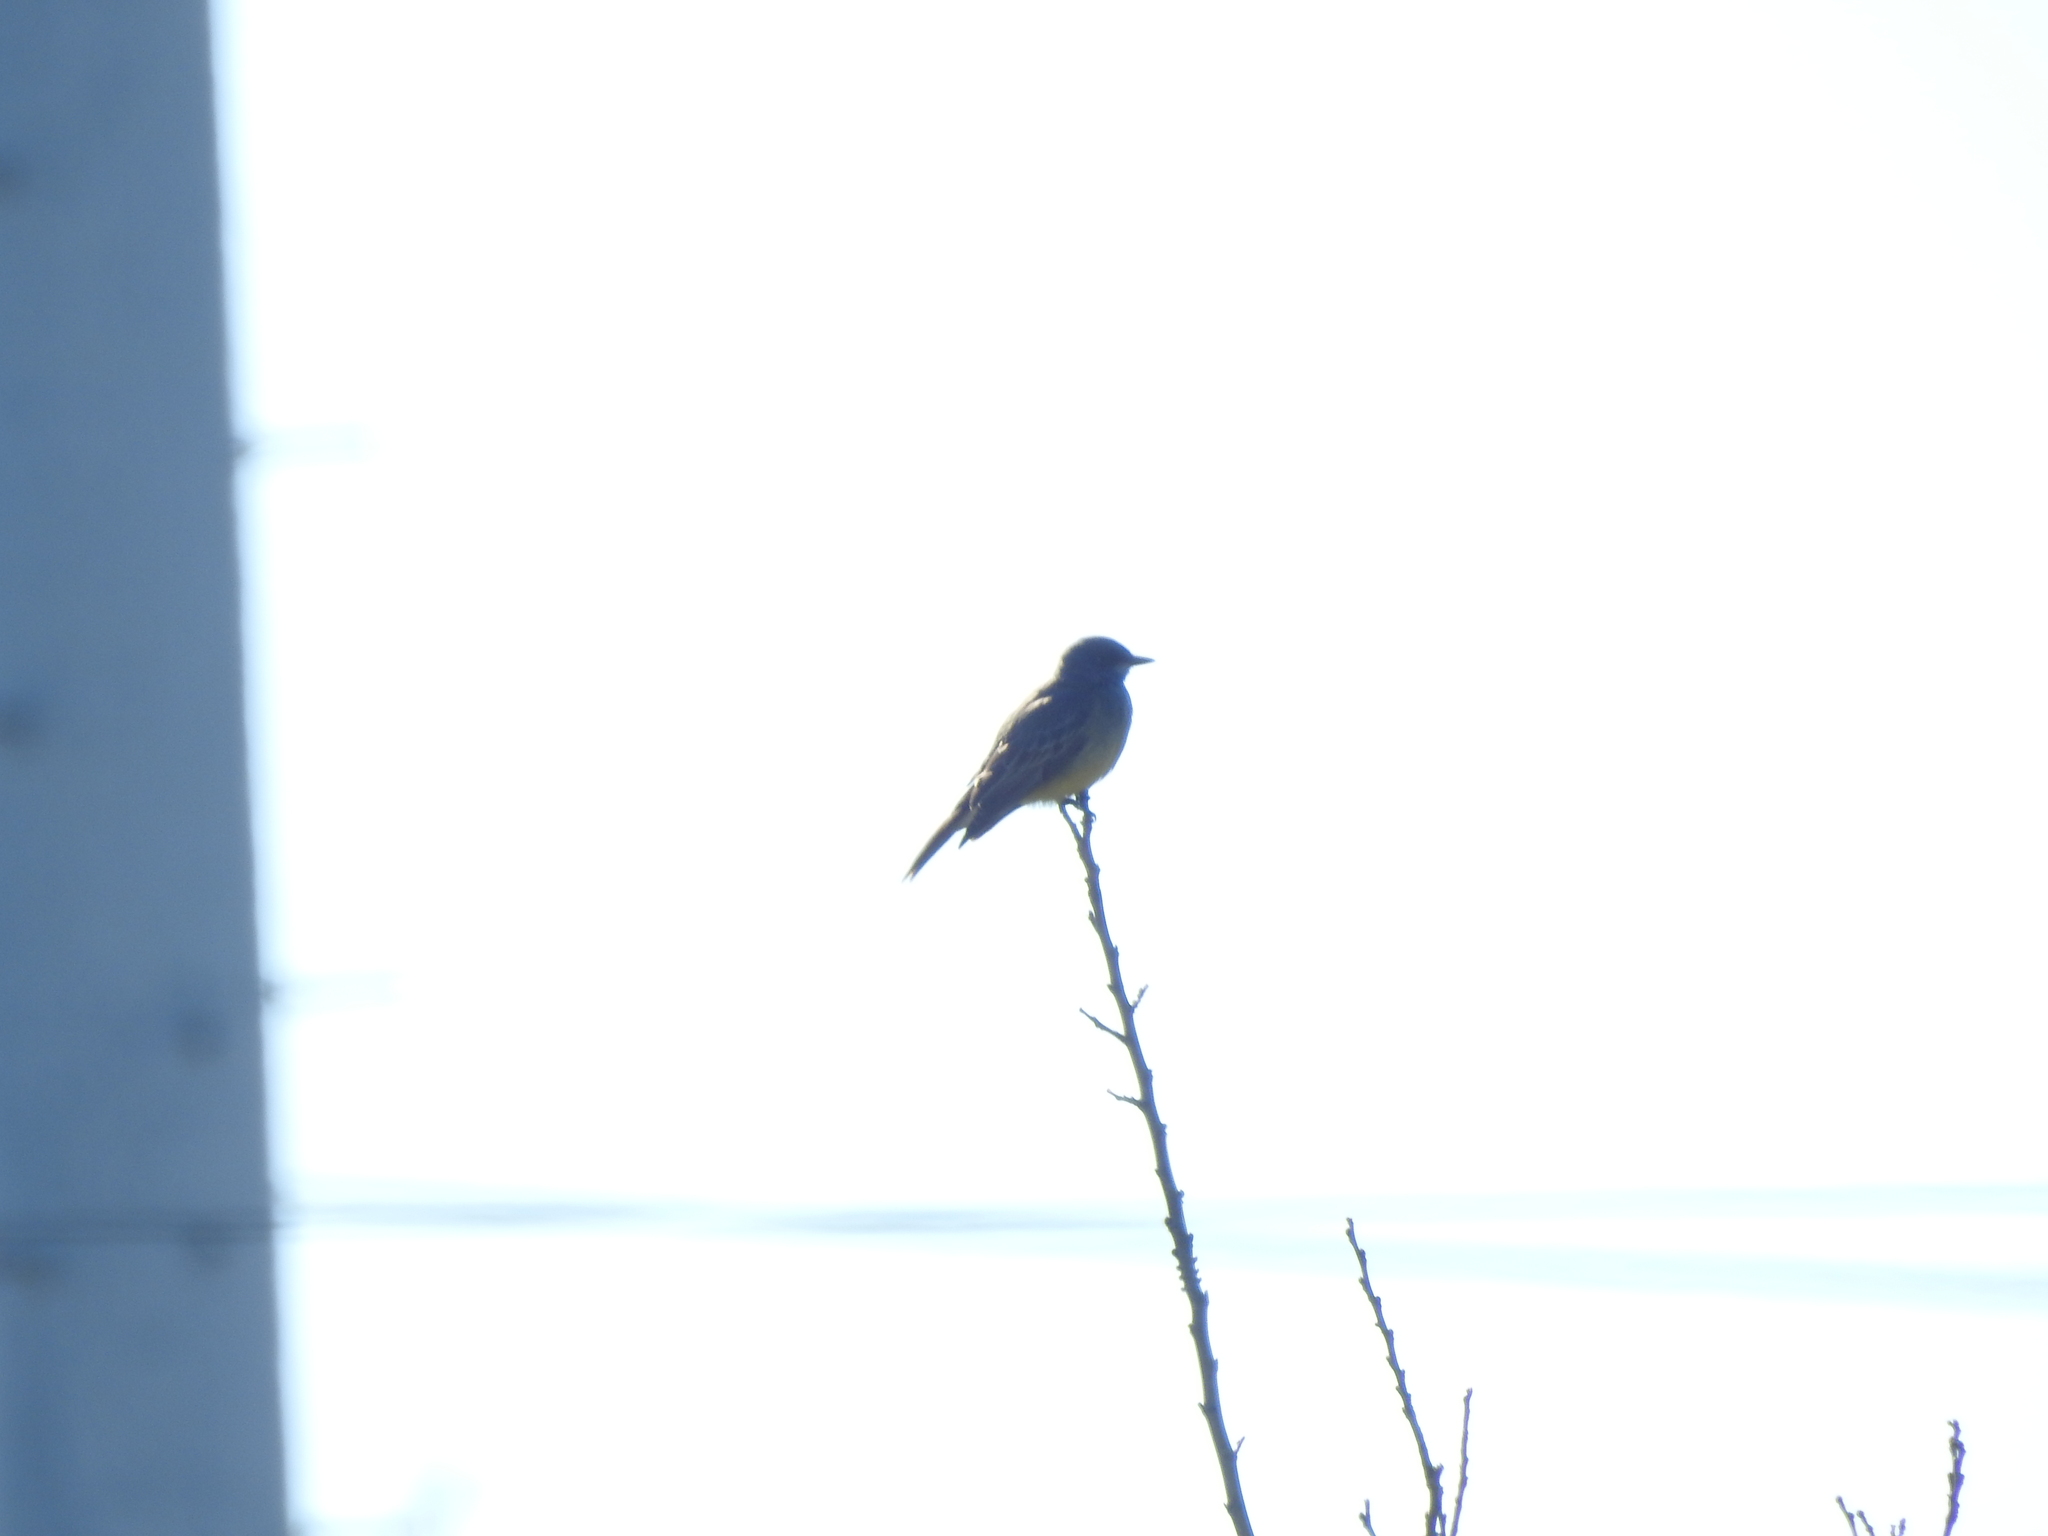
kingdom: Animalia
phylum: Chordata
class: Aves
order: Passeriformes
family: Tyrannidae
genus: Tyrannus
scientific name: Tyrannus vociferans
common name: Cassin's kingbird
